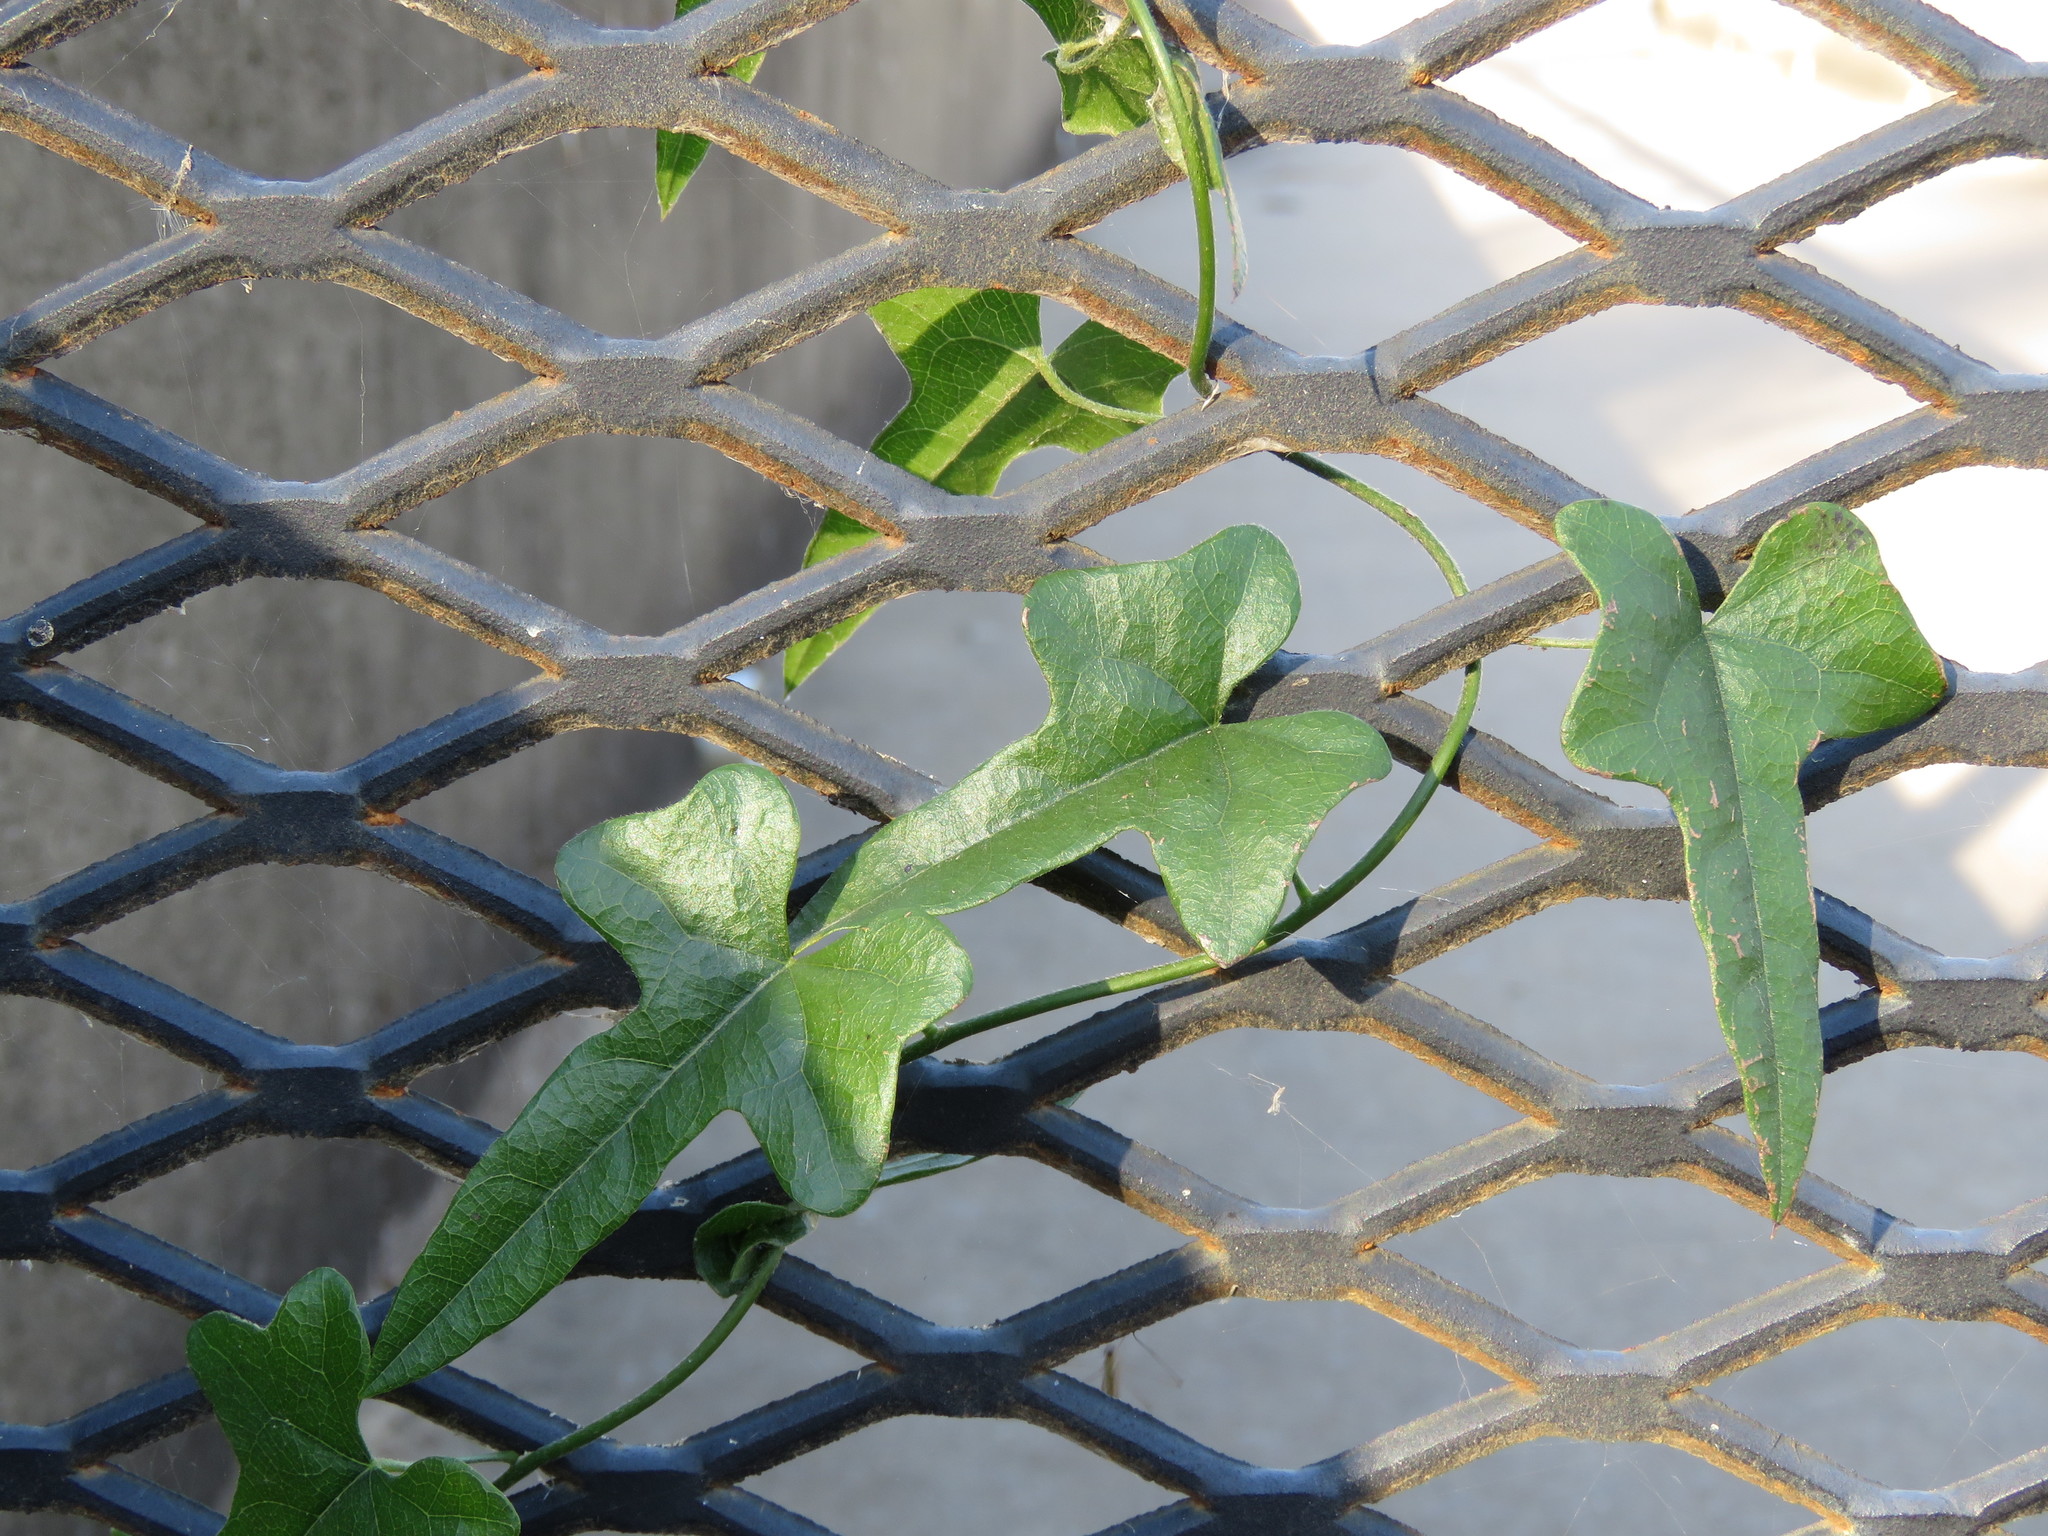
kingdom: Plantae
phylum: Tracheophyta
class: Magnoliopsida
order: Ranunculales
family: Menispermaceae
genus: Cocculus
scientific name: Cocculus carolinus
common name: Carolina moonseed
